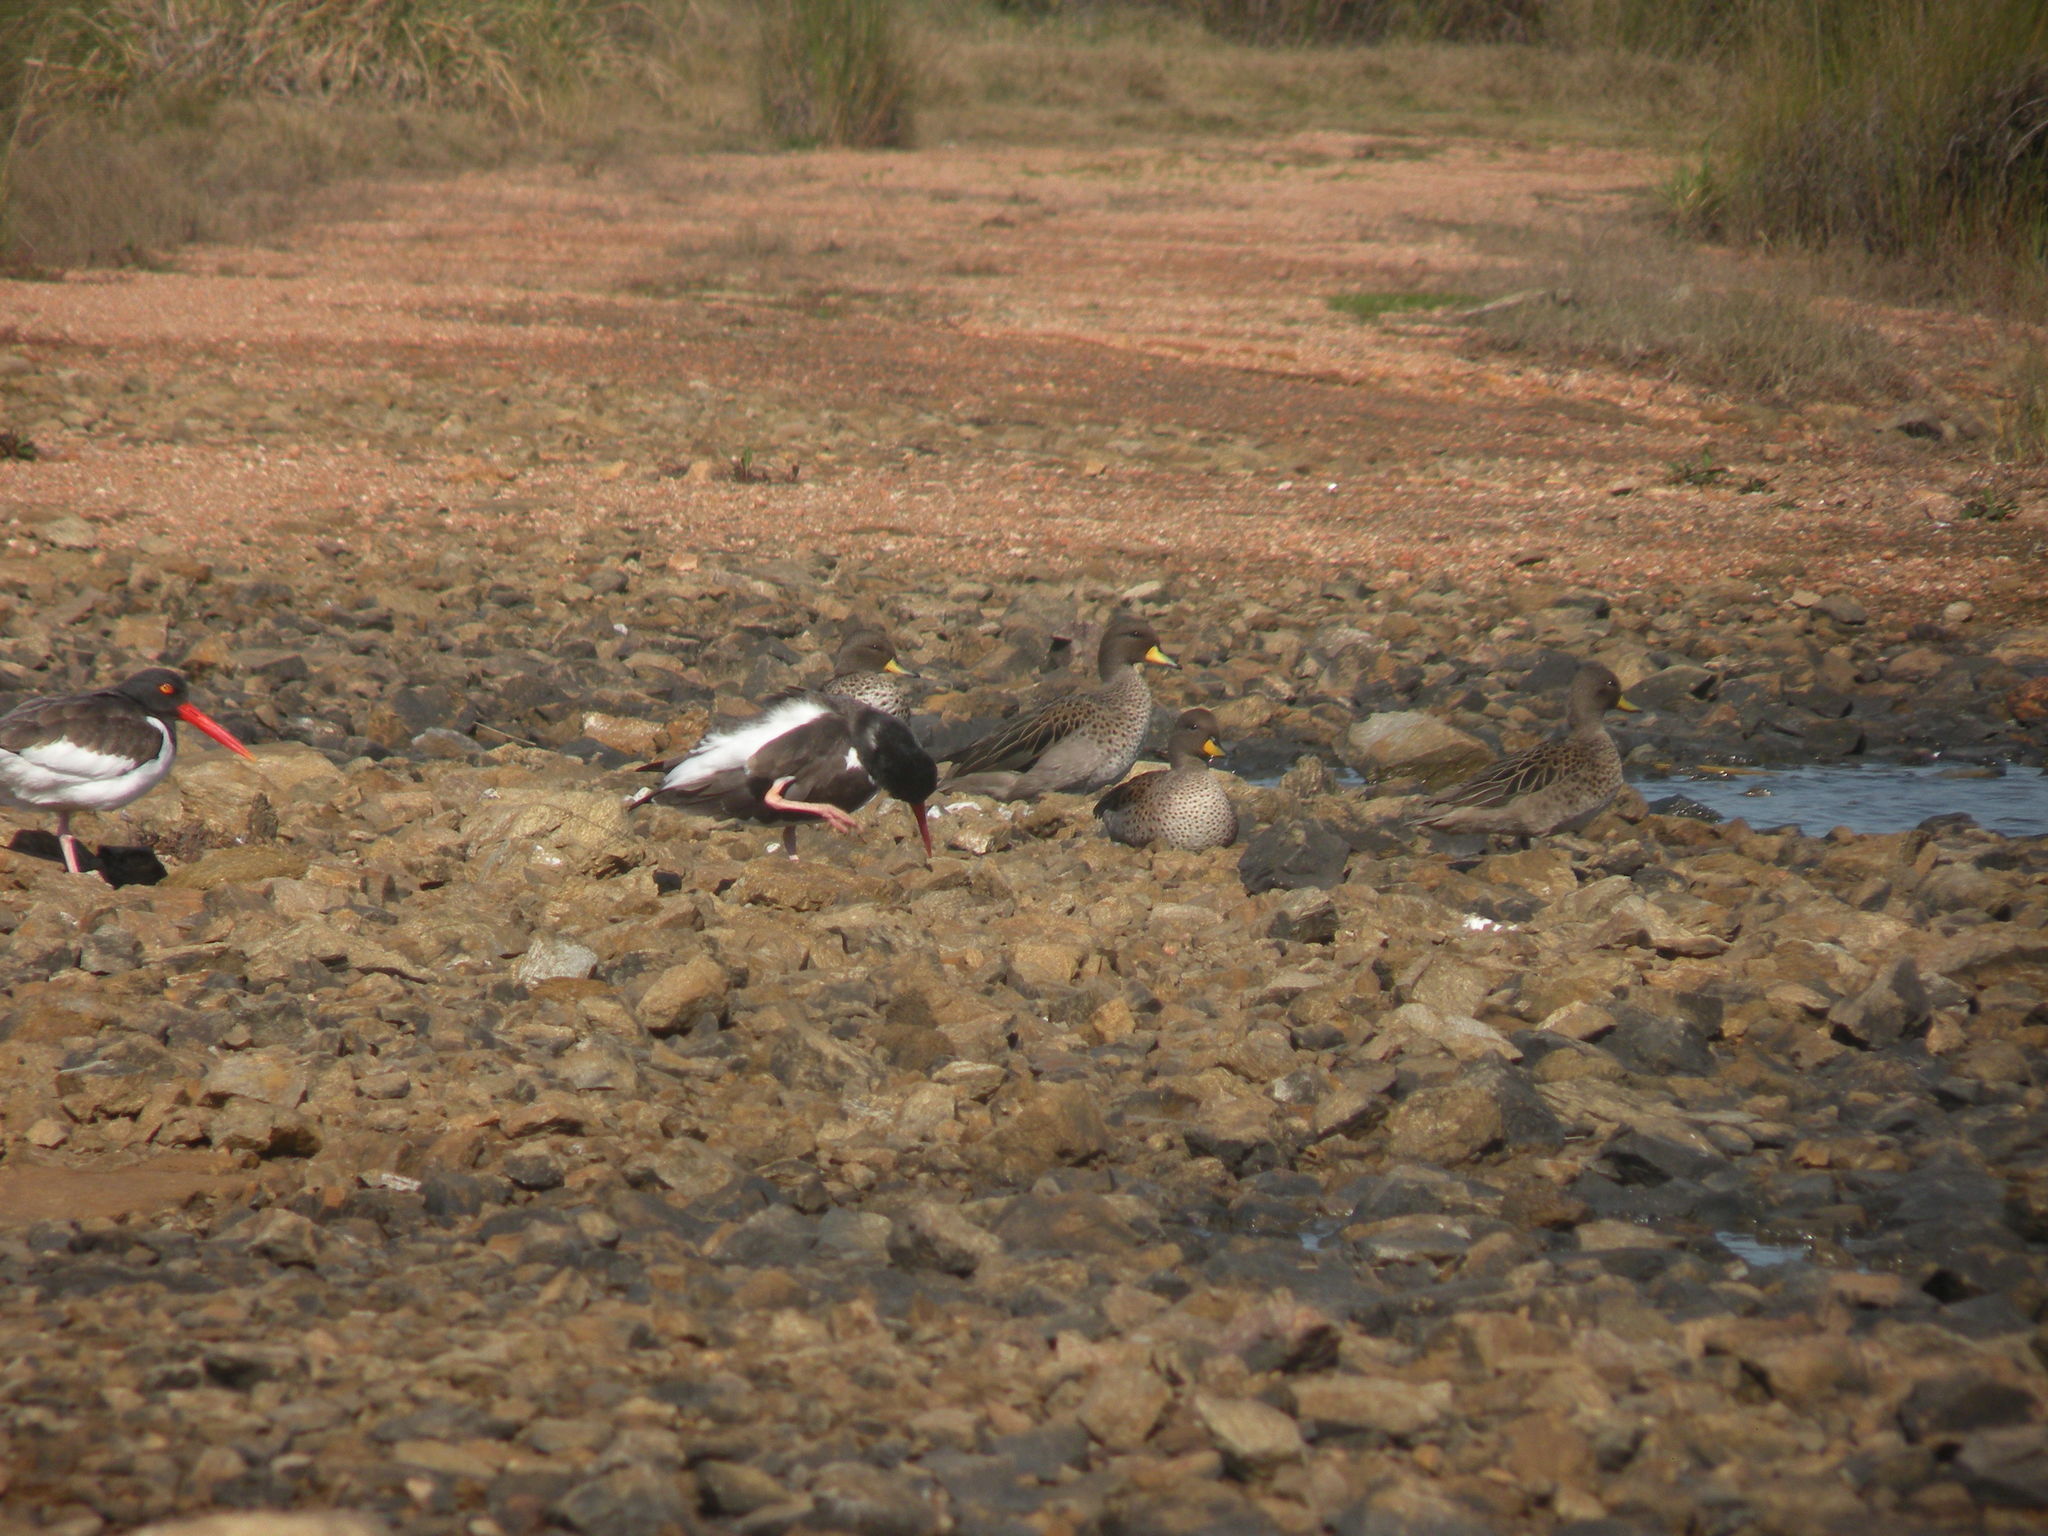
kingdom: Animalia
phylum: Chordata
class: Aves
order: Anseriformes
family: Anatidae
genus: Anas
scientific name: Anas flavirostris
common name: Yellow-billed teal
